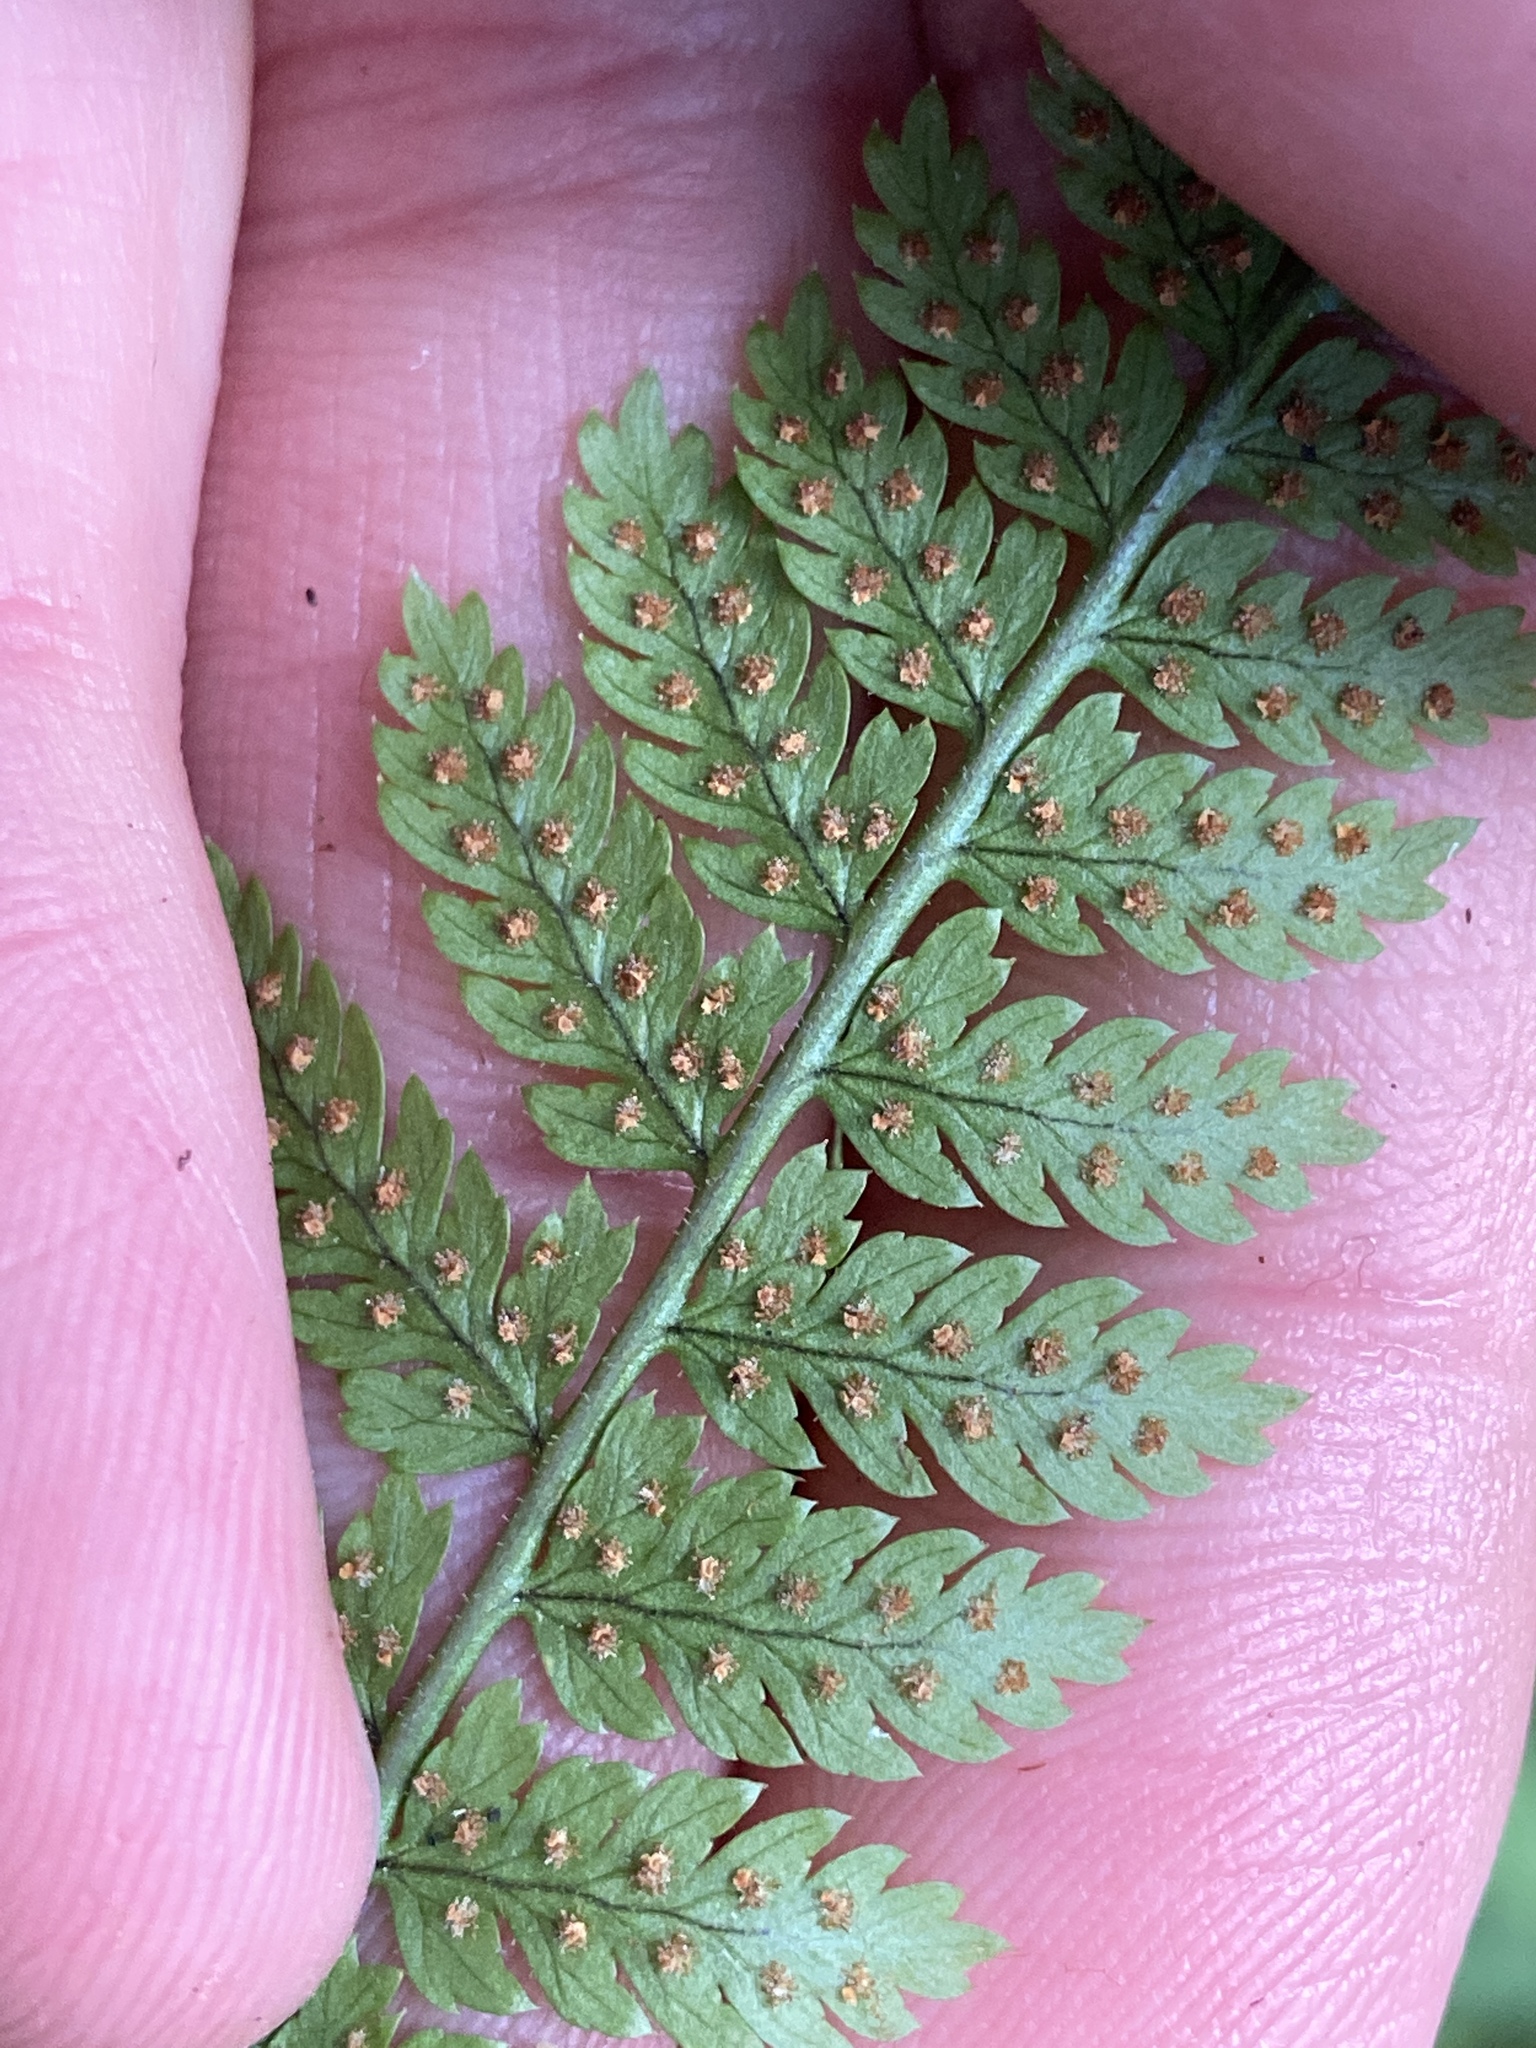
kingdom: Plantae
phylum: Tracheophyta
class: Polypodiopsida
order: Polypodiales
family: Dryopteridaceae
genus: Dryopteris
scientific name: Dryopteris carthusiana
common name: Narrow buckler-fern
